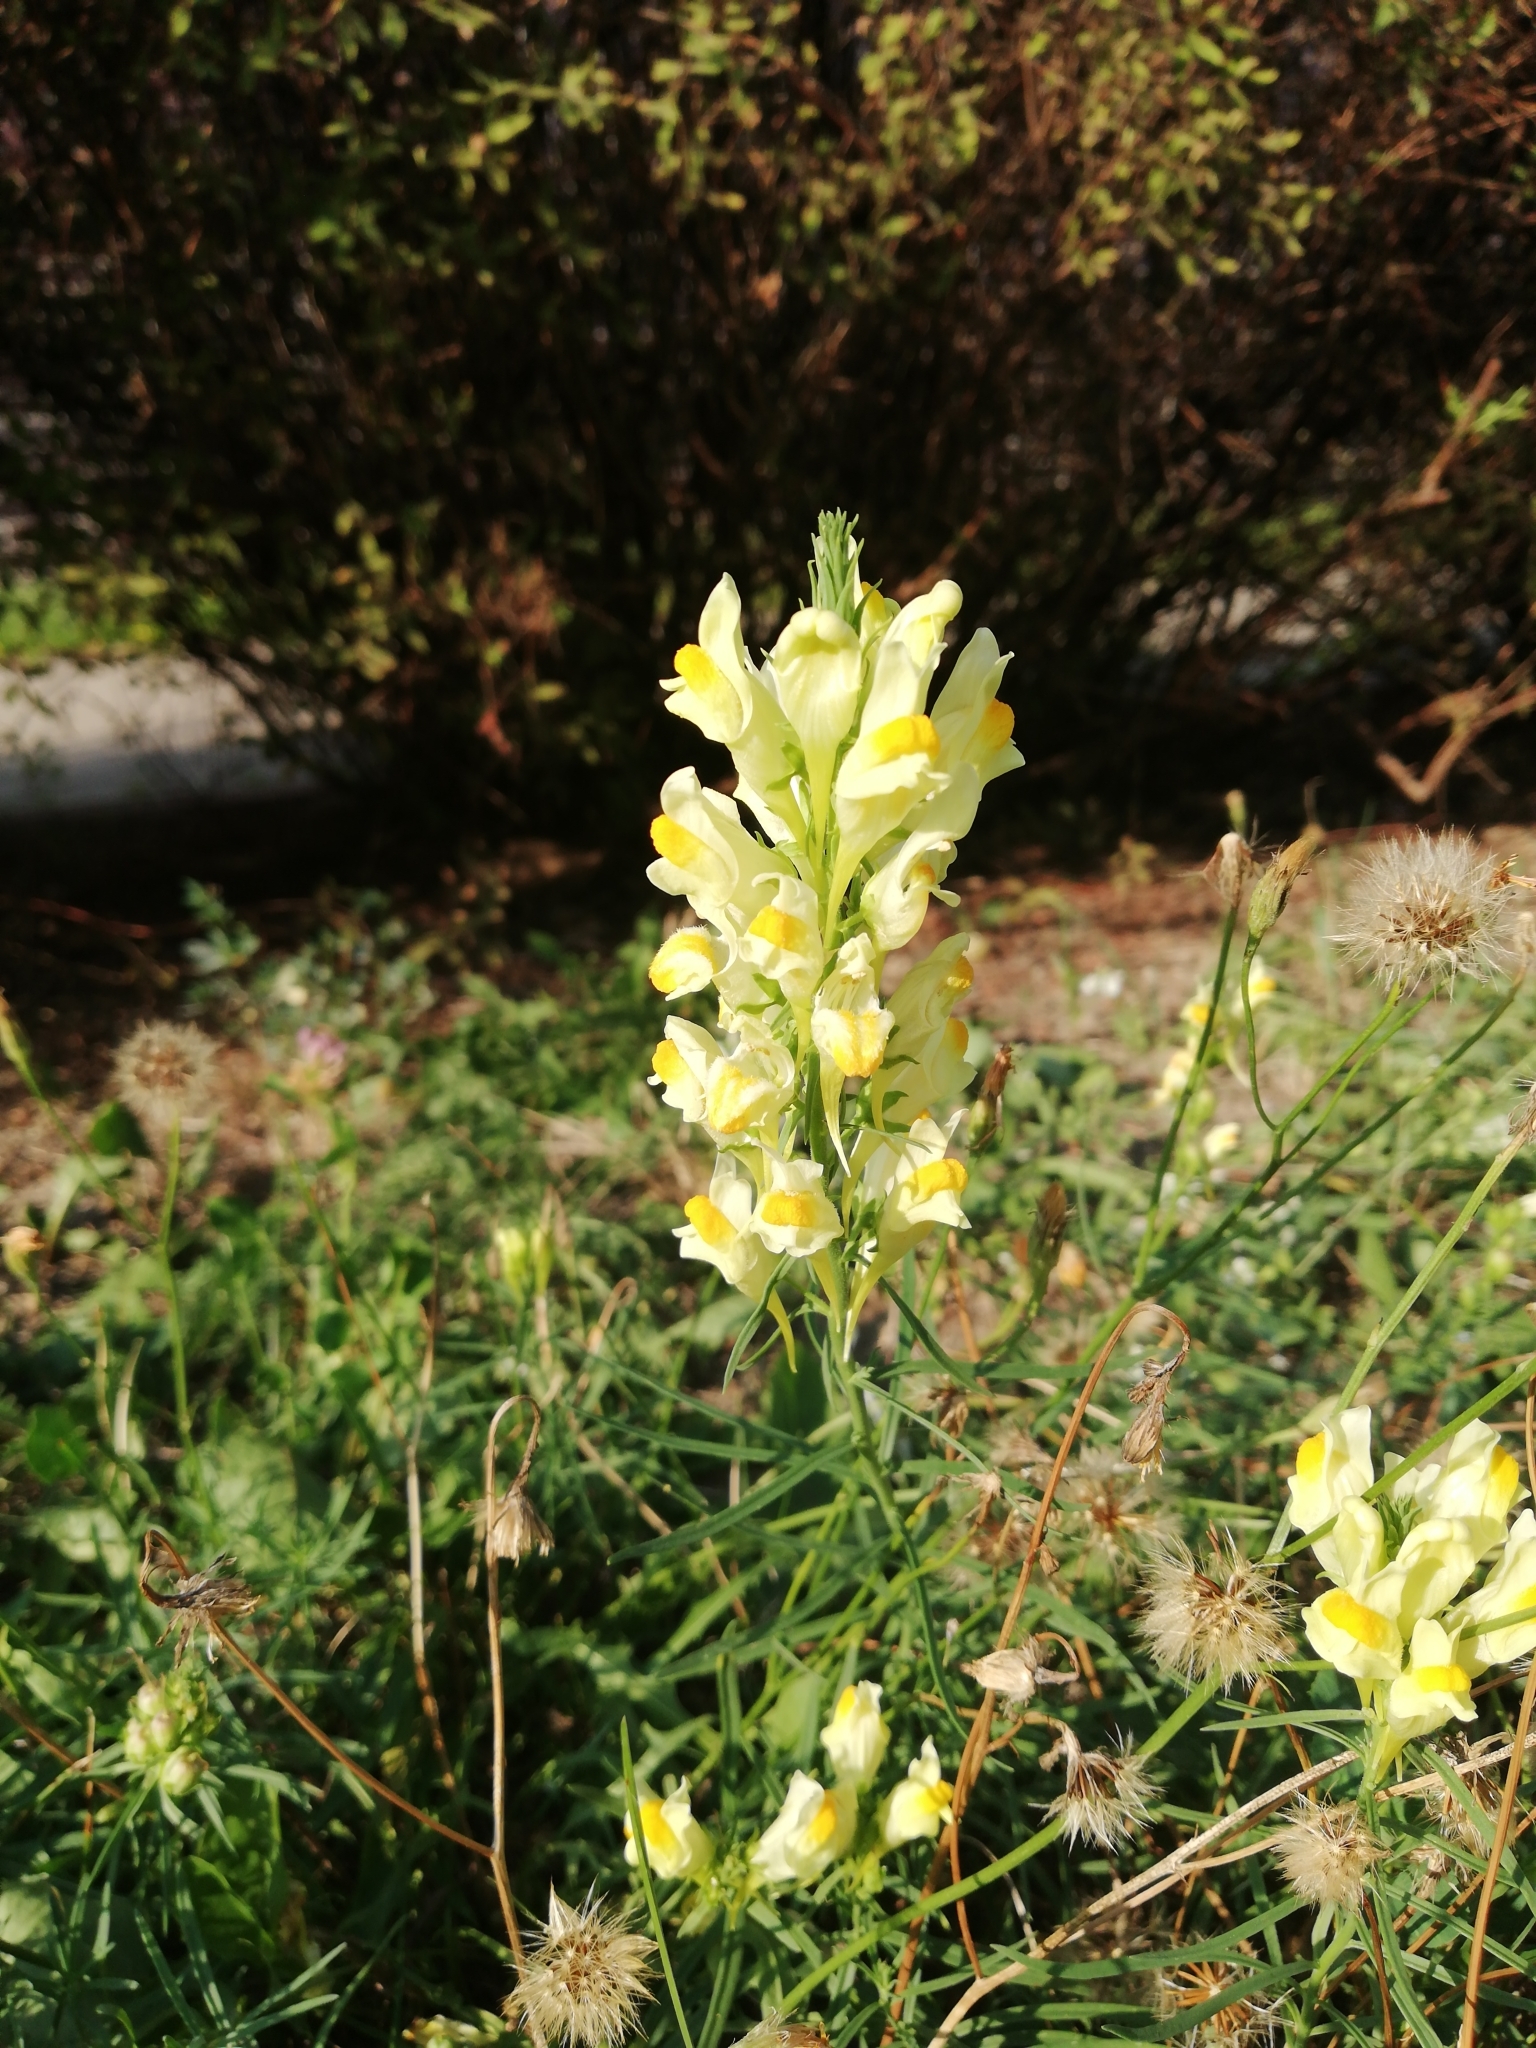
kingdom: Plantae
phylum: Tracheophyta
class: Magnoliopsida
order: Lamiales
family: Plantaginaceae
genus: Linaria
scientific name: Linaria vulgaris
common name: Butter and eggs
